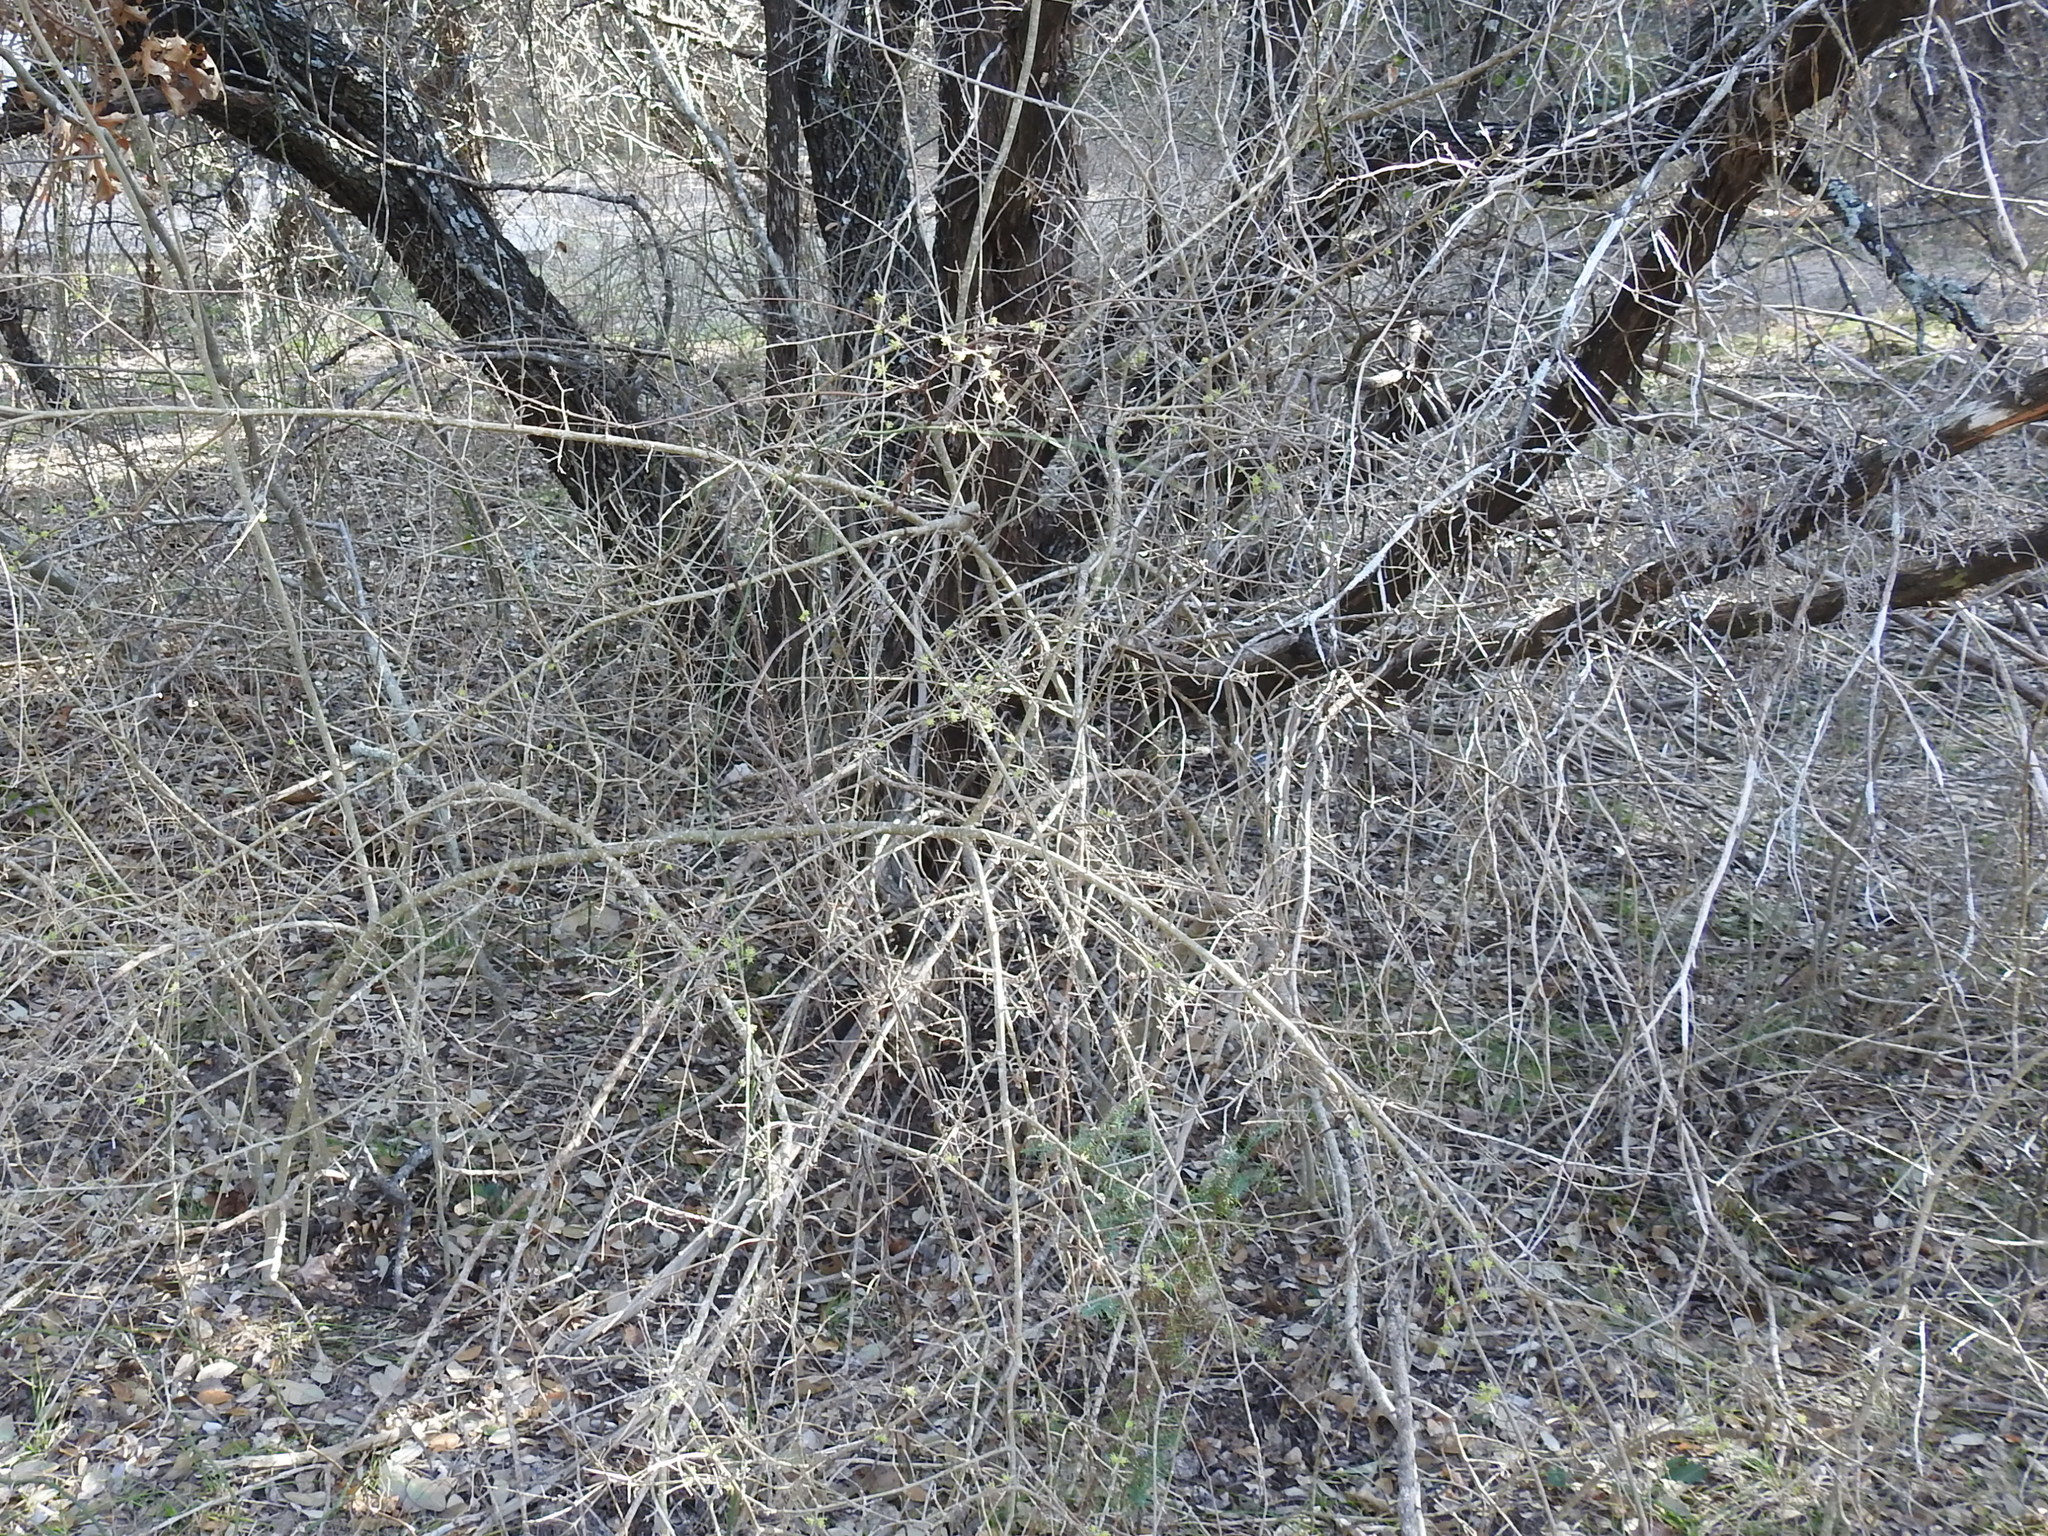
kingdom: Plantae
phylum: Tracheophyta
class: Magnoliopsida
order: Lamiales
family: Oleaceae
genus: Forestiera
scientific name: Forestiera pubescens
